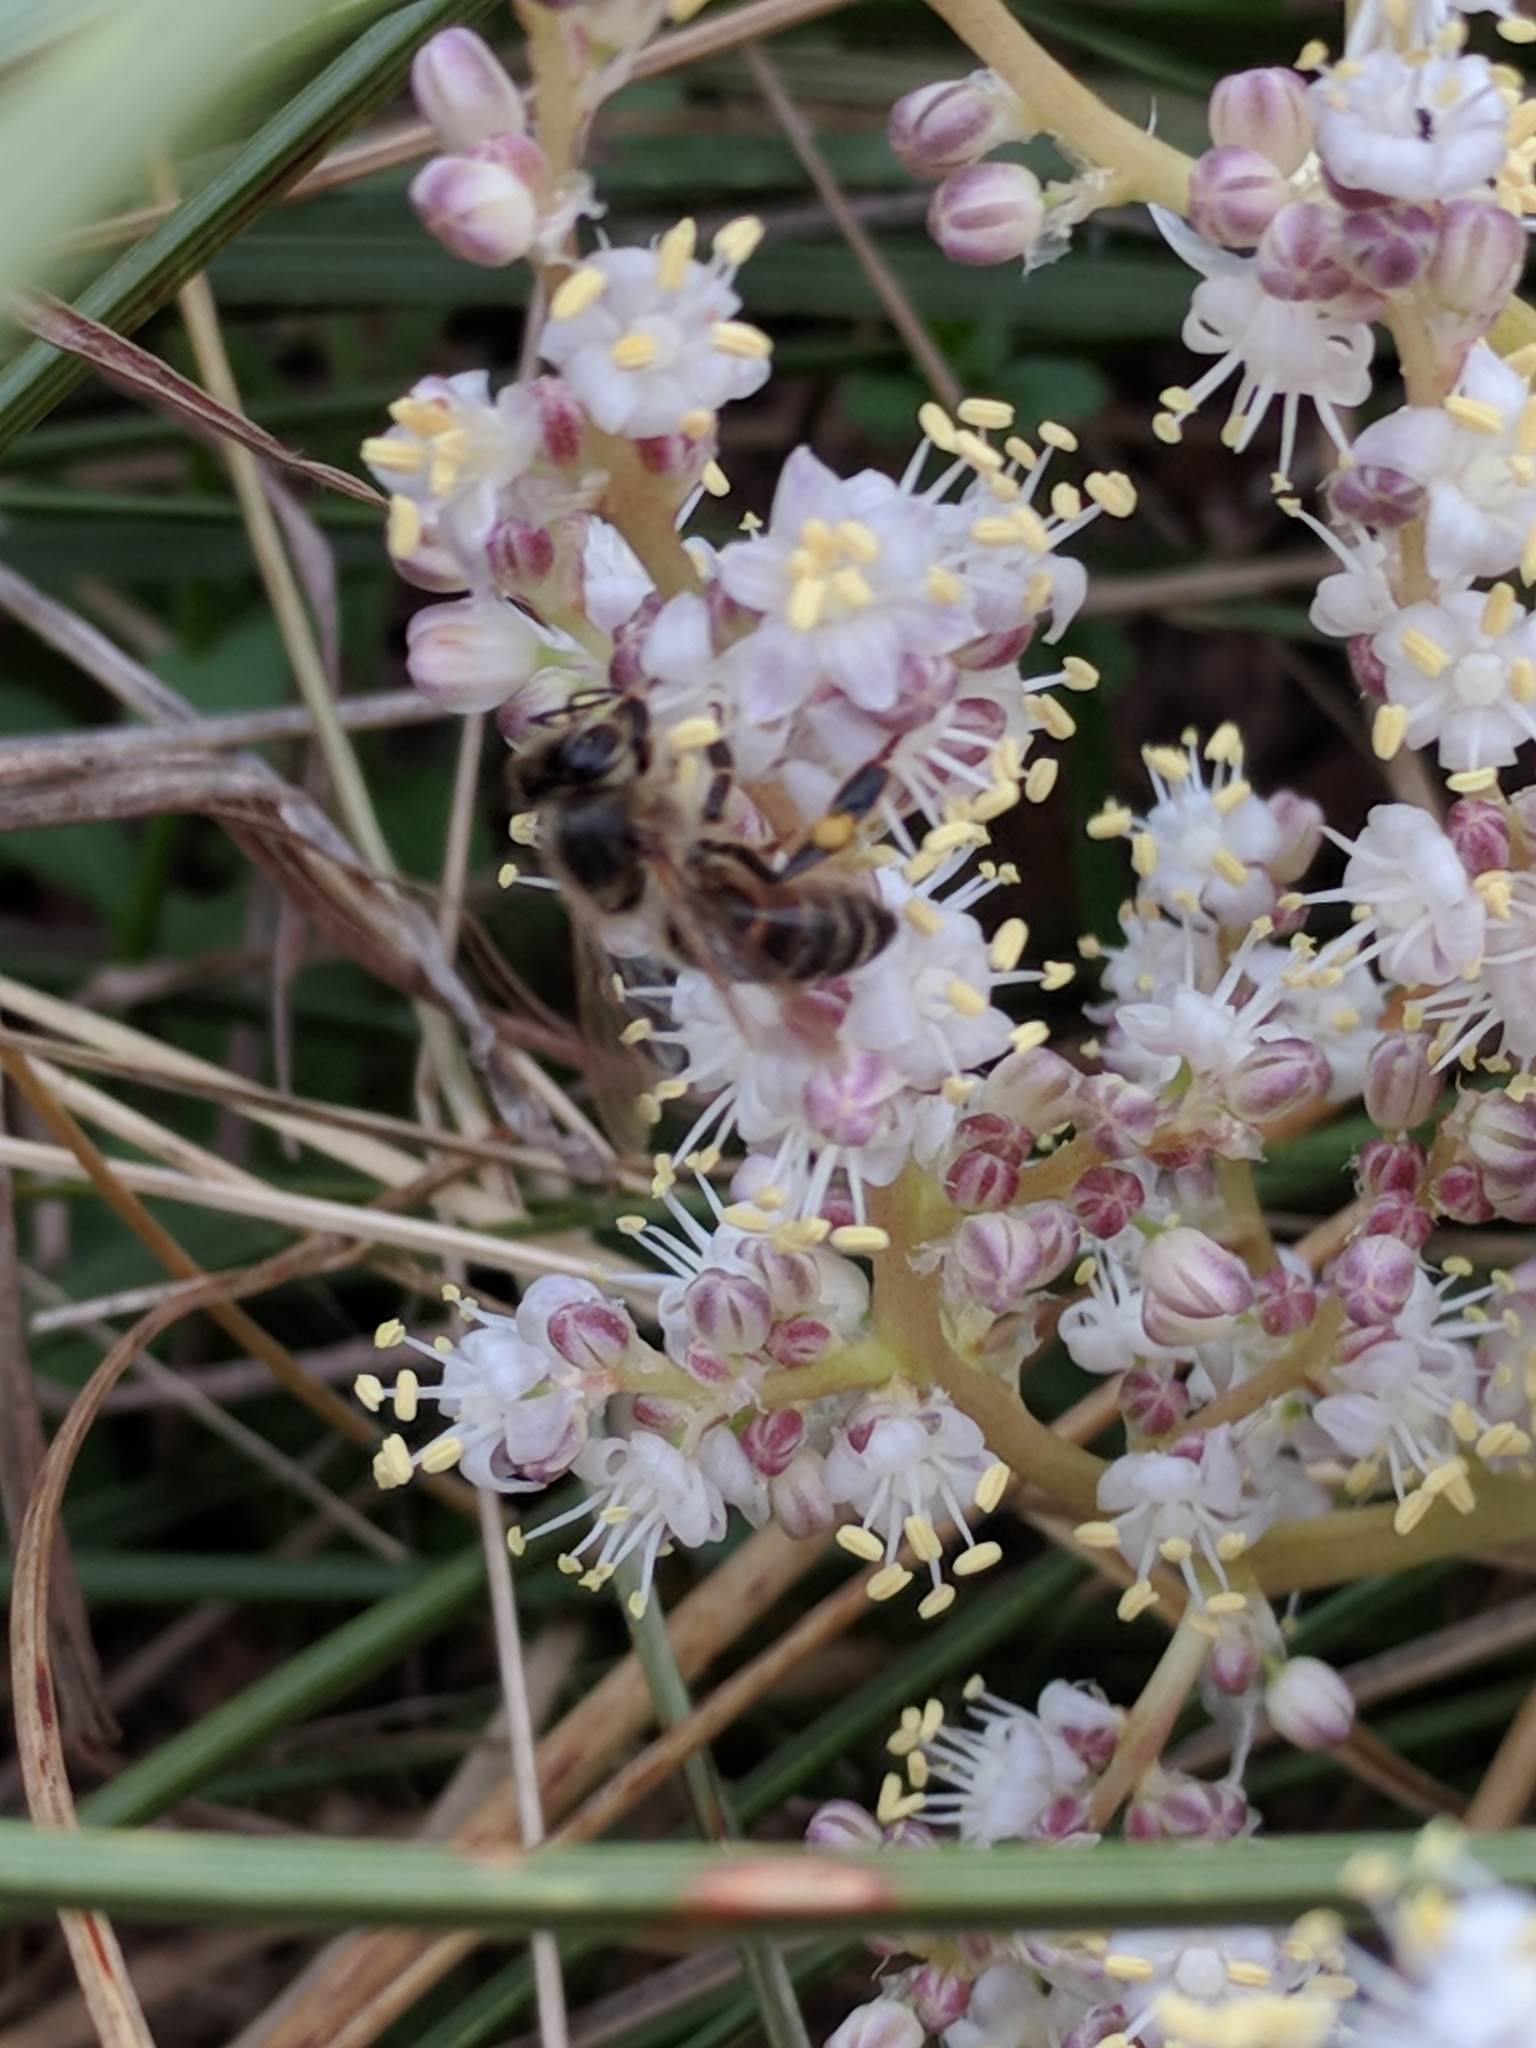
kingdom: Animalia
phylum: Arthropoda
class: Insecta
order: Hymenoptera
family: Apidae
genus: Apis
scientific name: Apis mellifera
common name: Honey bee
